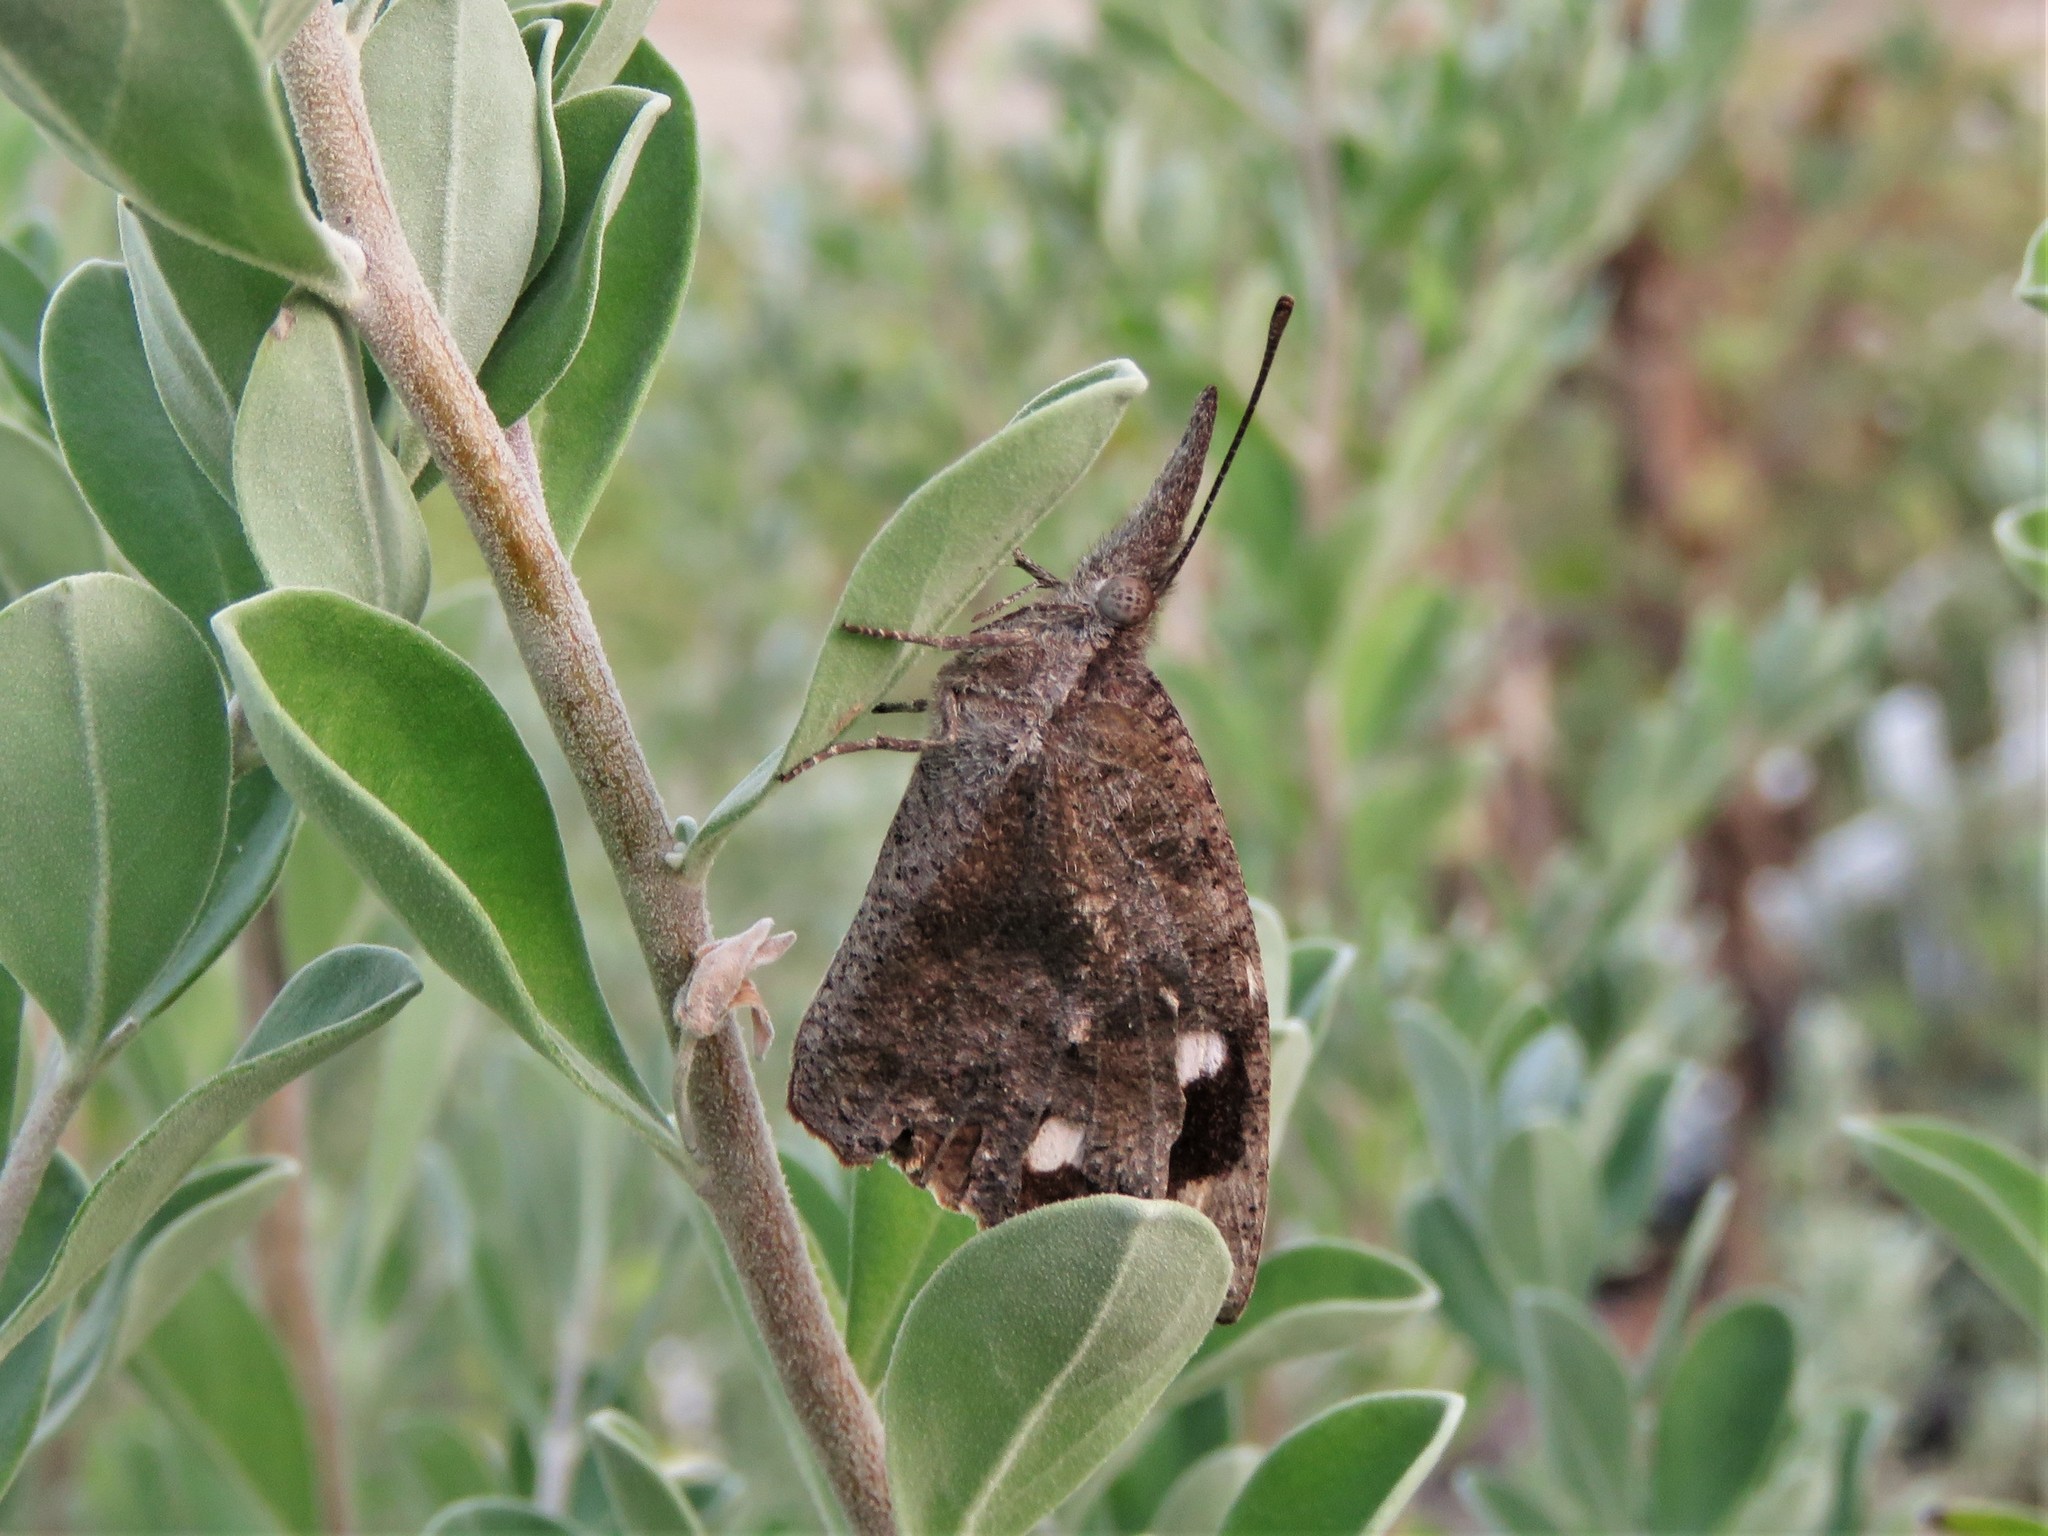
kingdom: Animalia
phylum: Arthropoda
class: Insecta
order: Lepidoptera
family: Nymphalidae
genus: Libytheana
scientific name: Libytheana carinenta
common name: American snout
